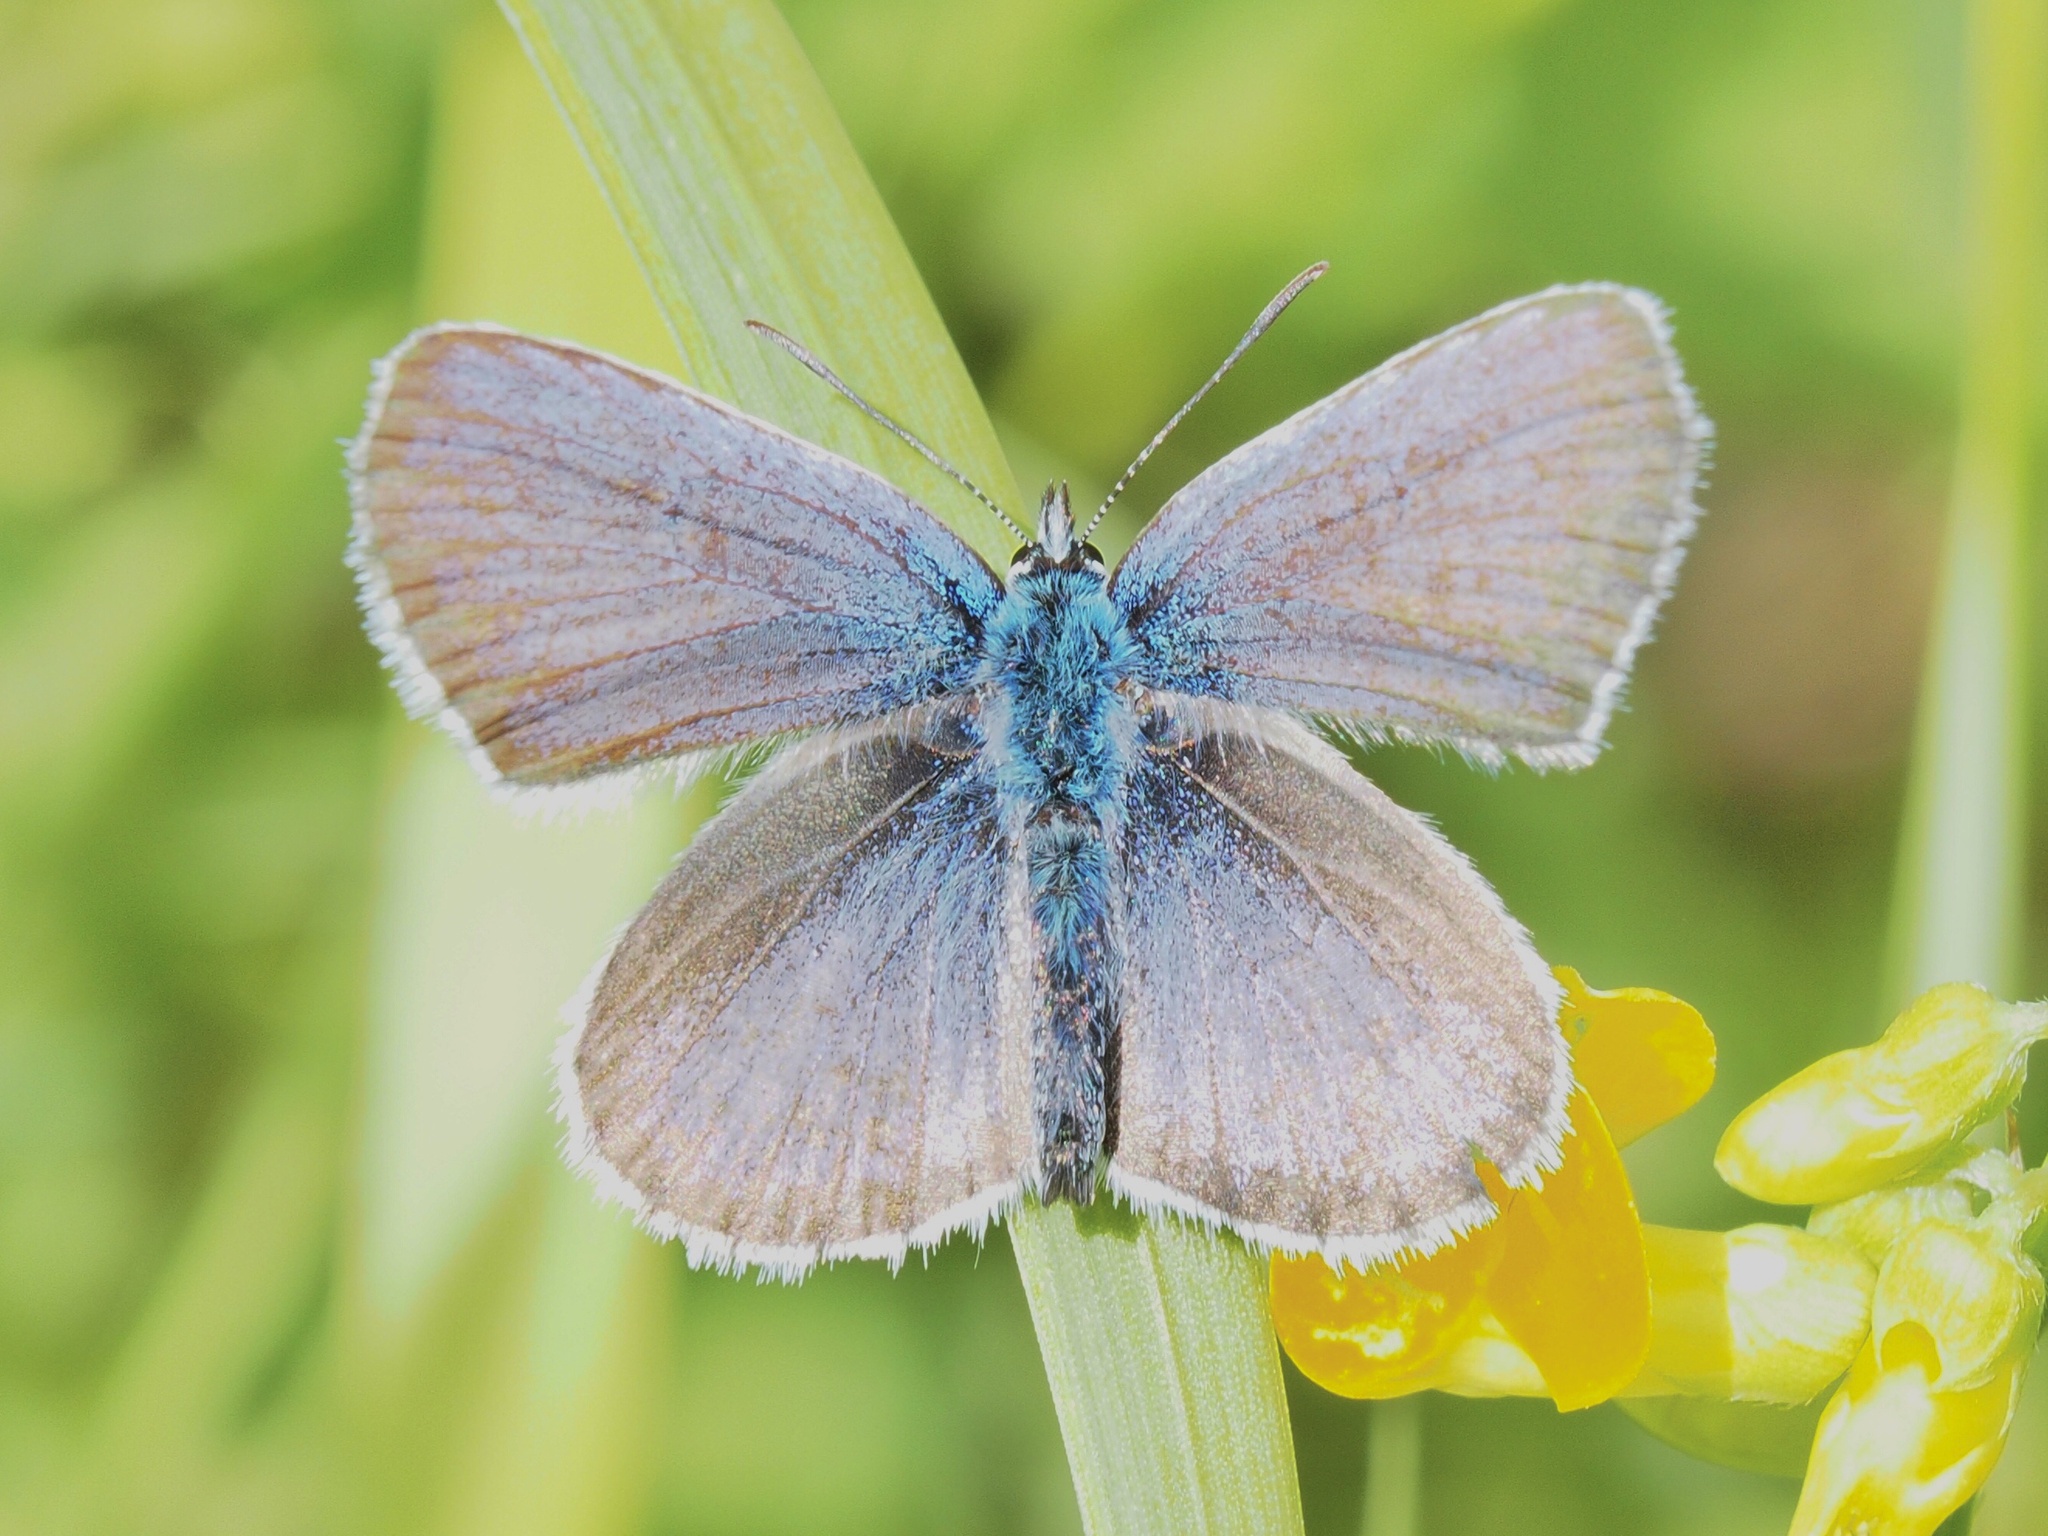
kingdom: Animalia
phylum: Arthropoda
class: Insecta
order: Lepidoptera
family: Lycaenidae
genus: Plebejus
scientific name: Plebejus argus
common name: Silver-studded blue
